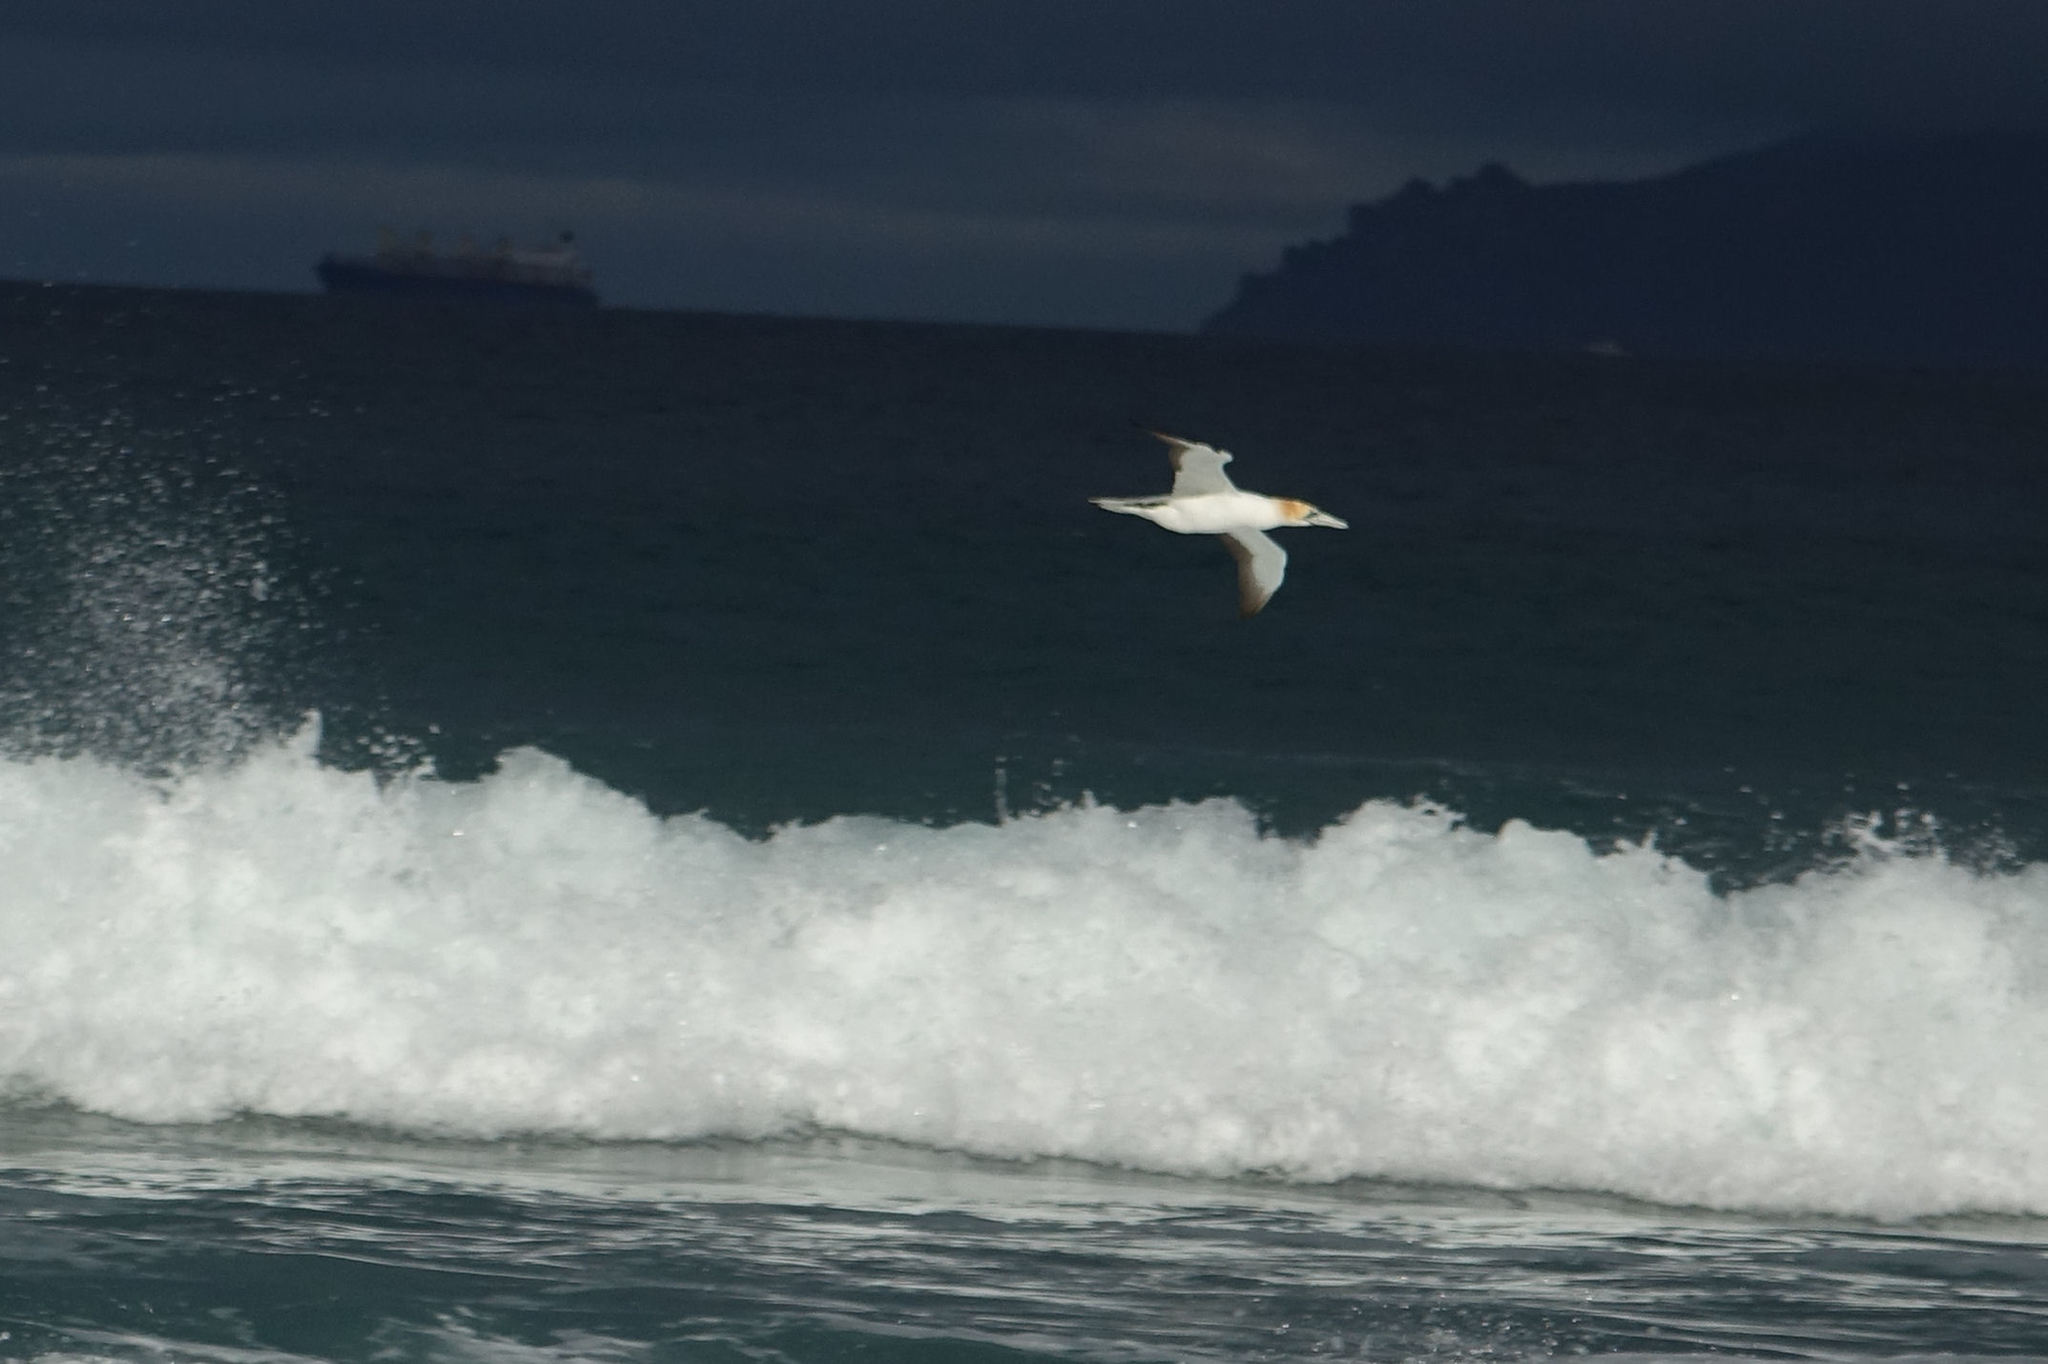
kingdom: Animalia
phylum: Chordata
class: Aves
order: Suliformes
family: Sulidae
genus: Morus
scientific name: Morus serrator
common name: Australasian gannet
